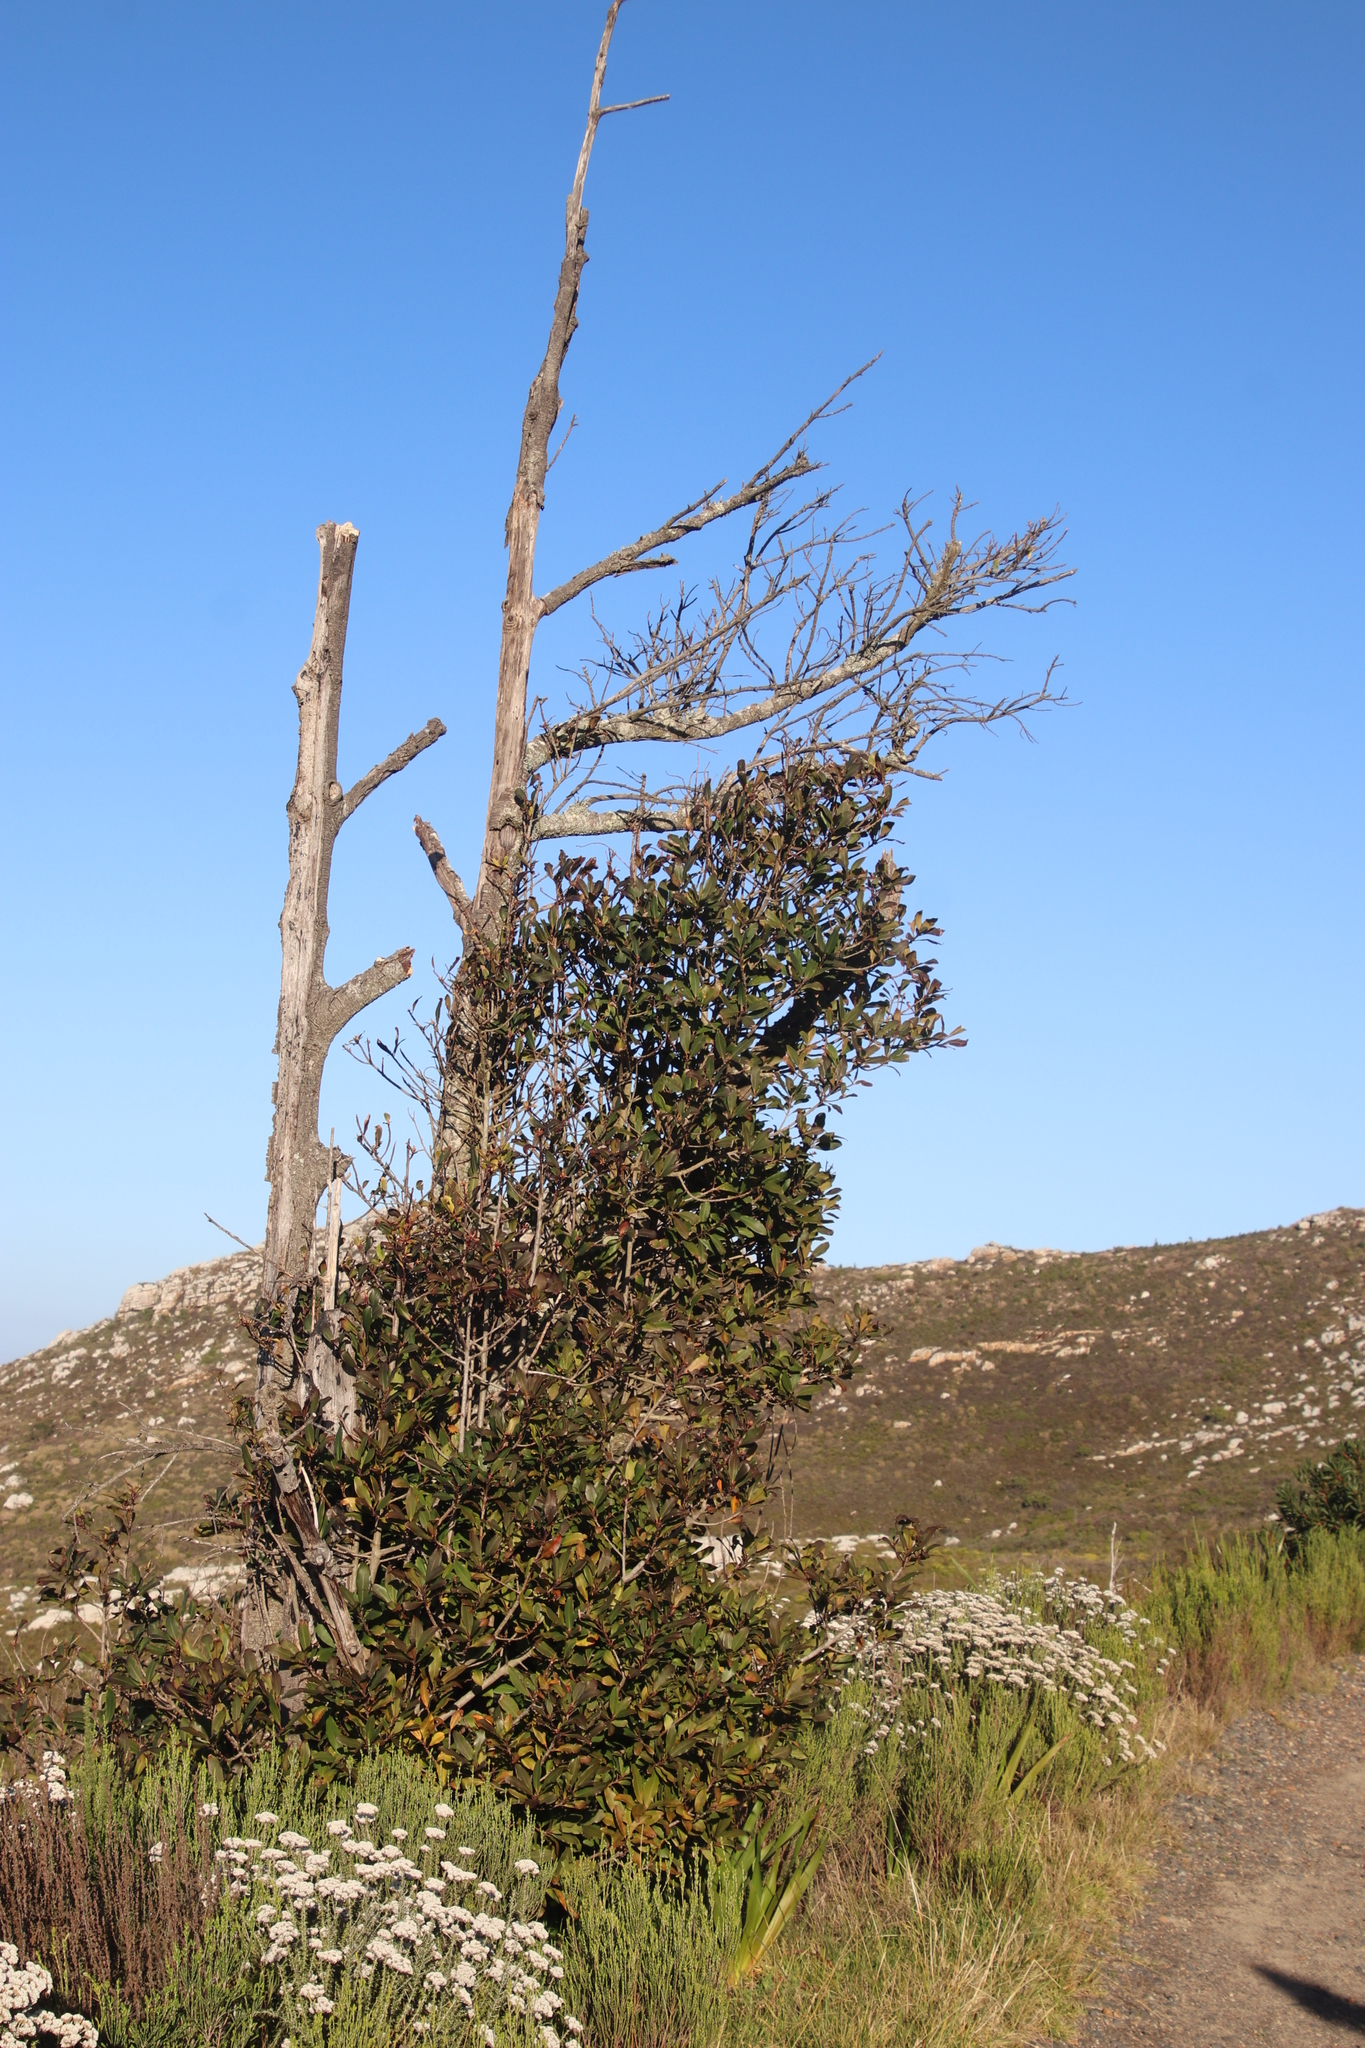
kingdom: Plantae
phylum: Tracheophyta
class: Magnoliopsida
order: Ericales
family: Primulaceae
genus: Myrsine
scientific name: Myrsine melanophloeos
